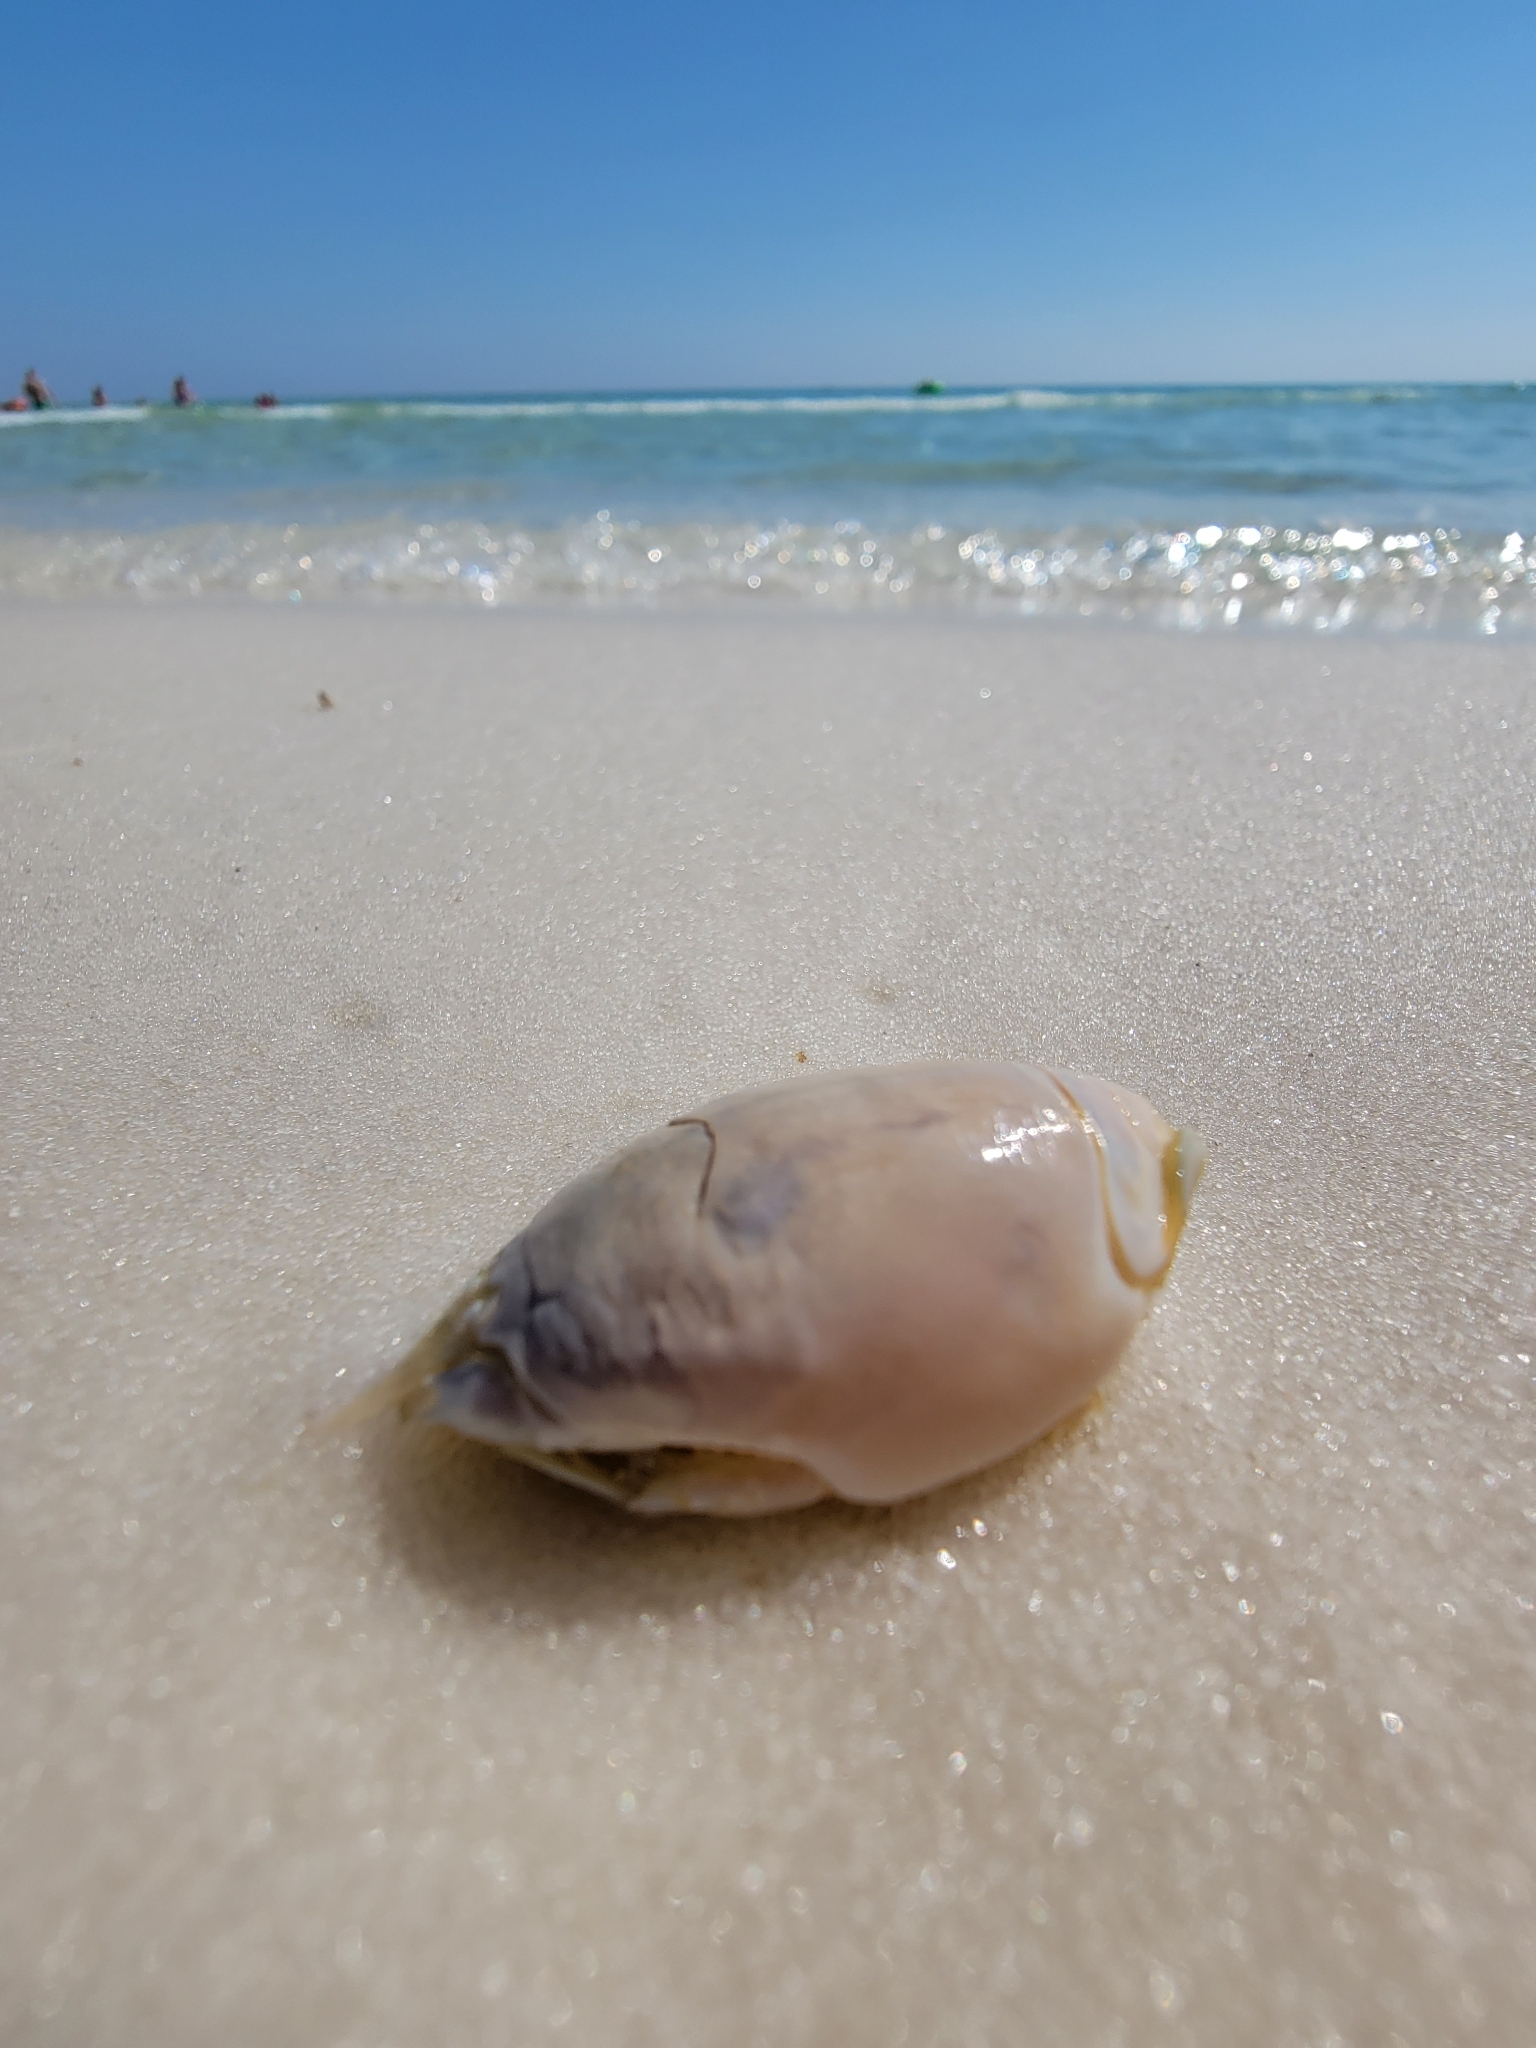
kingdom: Animalia
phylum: Arthropoda
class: Malacostraca
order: Decapoda
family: Hippidae
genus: Emerita
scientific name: Emerita talpoida
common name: Atlantic sand crab
